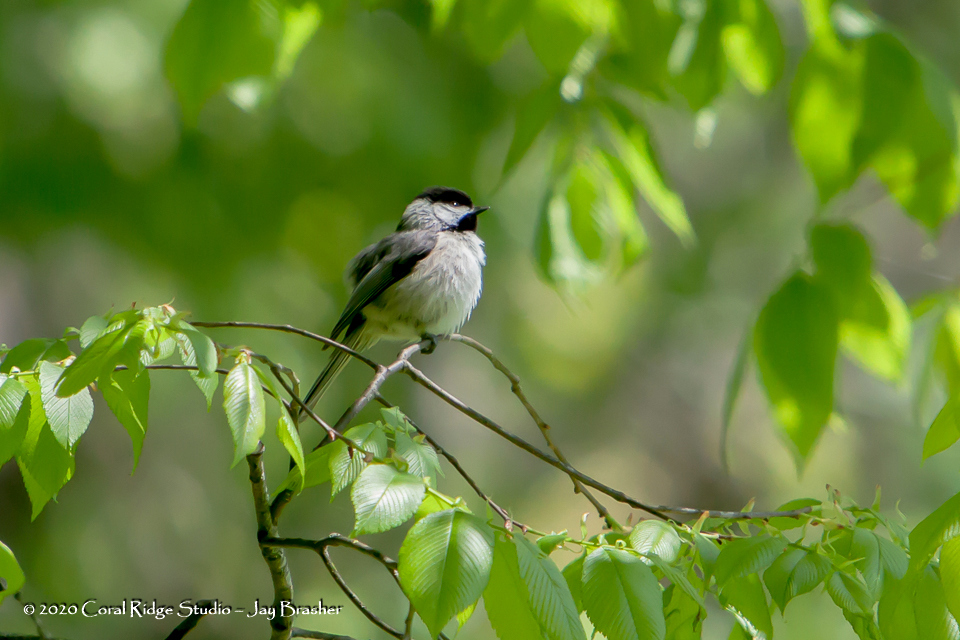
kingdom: Animalia
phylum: Chordata
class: Aves
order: Passeriformes
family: Paridae
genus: Poecile
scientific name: Poecile carolinensis
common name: Carolina chickadee
